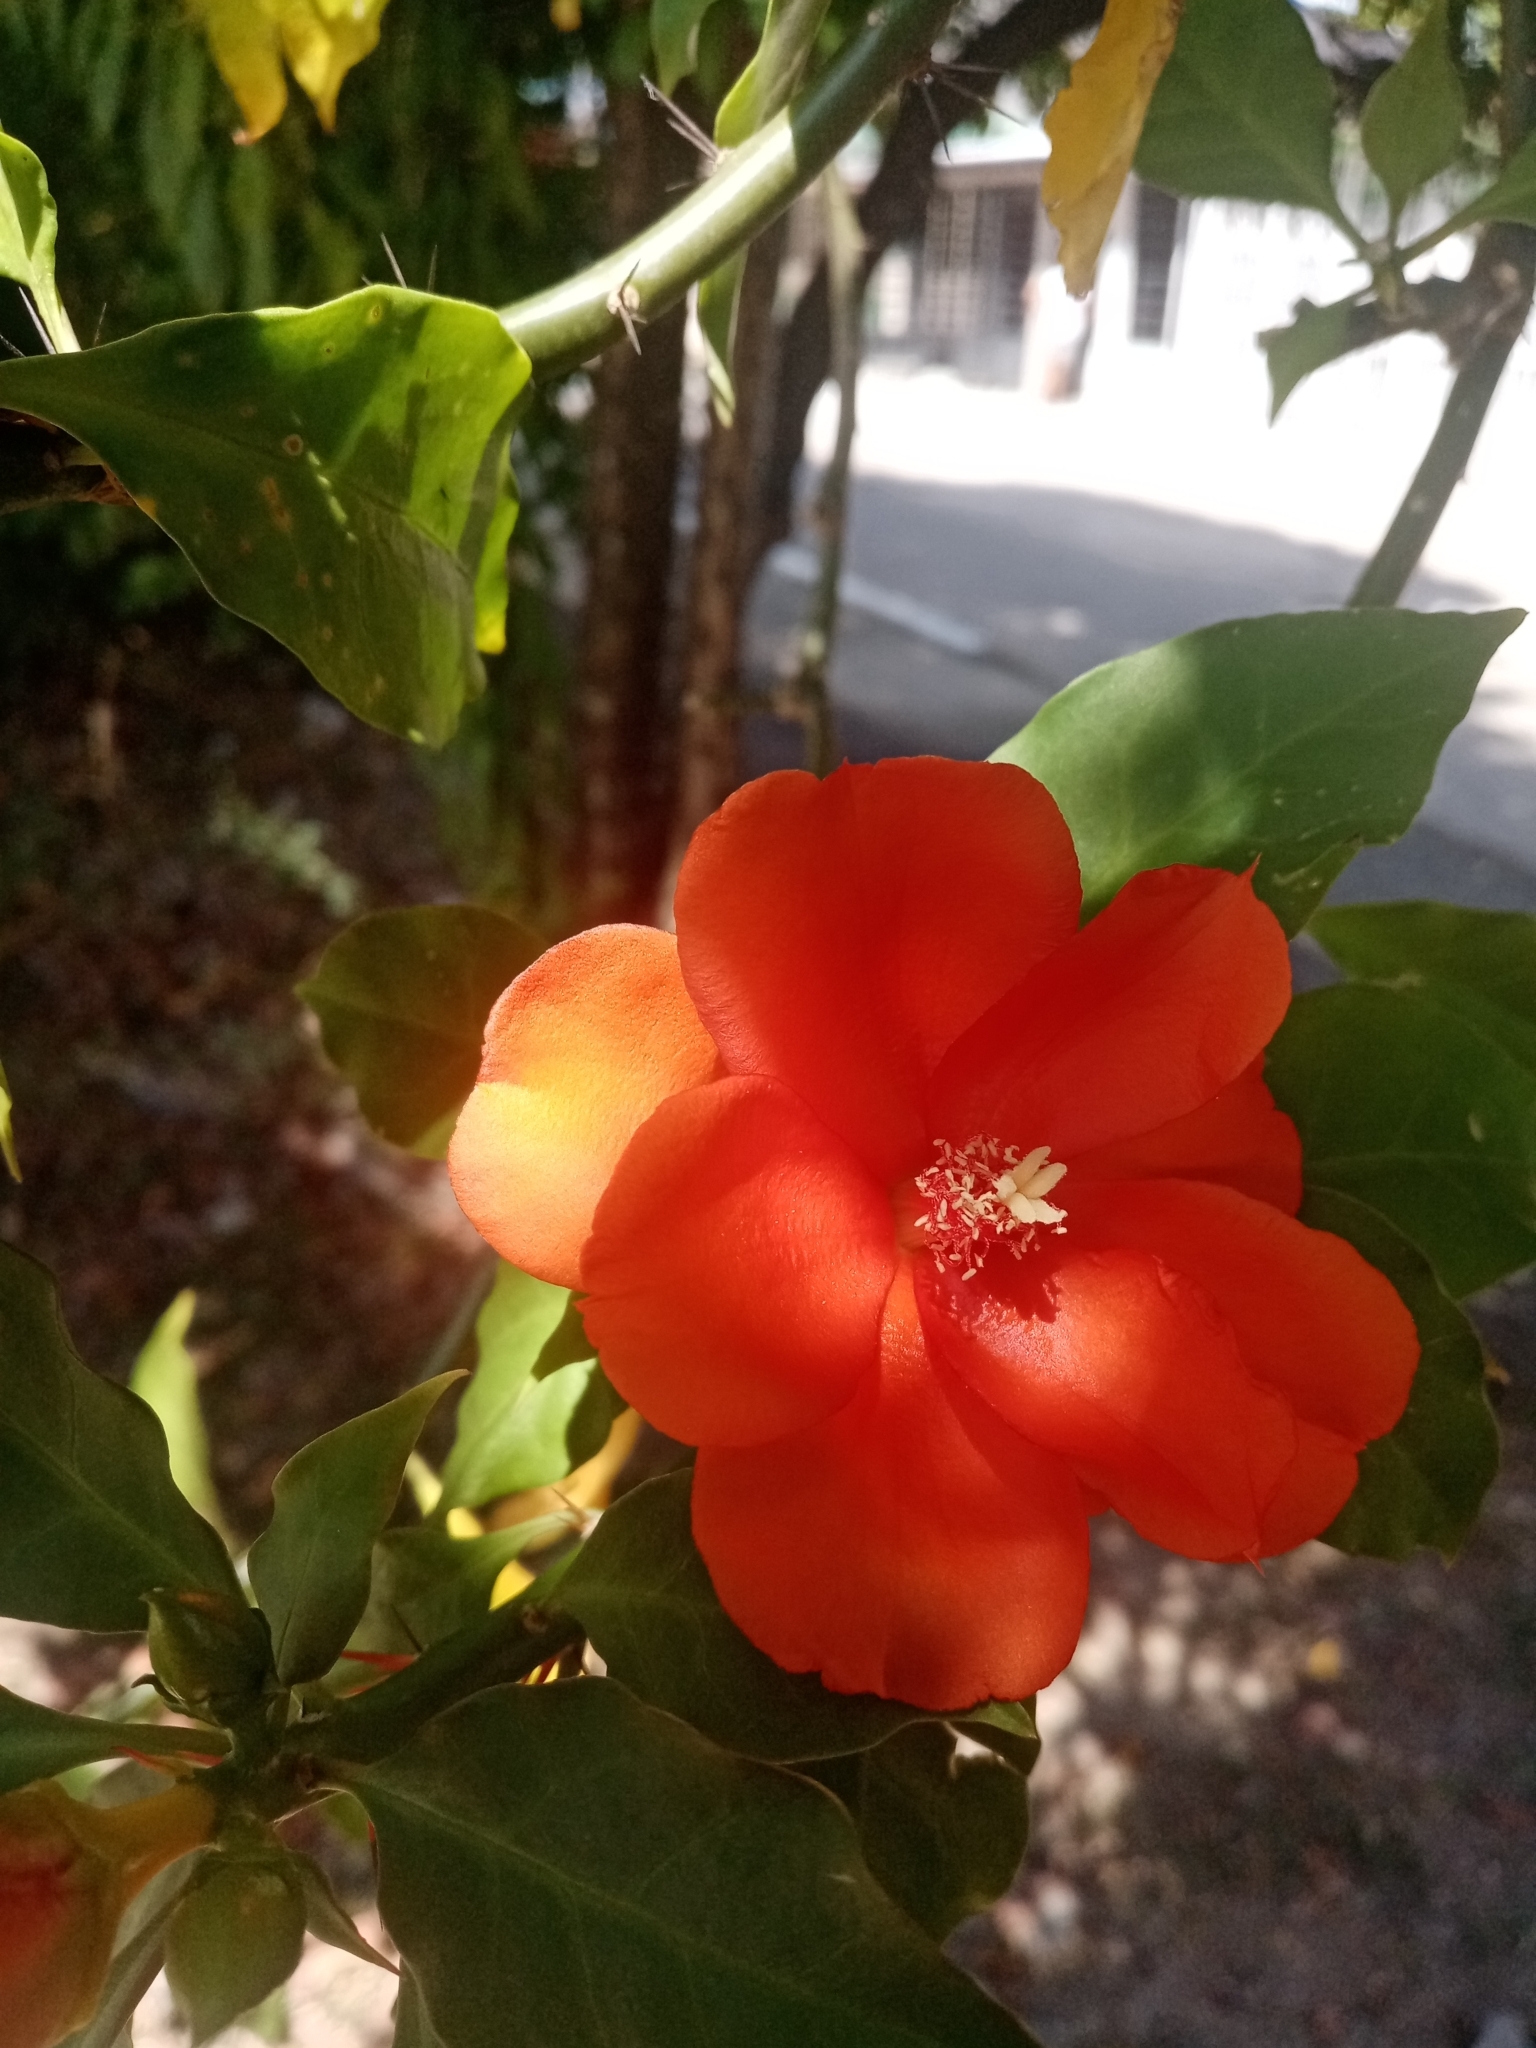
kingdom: Plantae
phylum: Tracheophyta
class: Magnoliopsida
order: Caryophyllales
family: Cactaceae
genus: Leuenbergeria
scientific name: Leuenbergeria bleo
